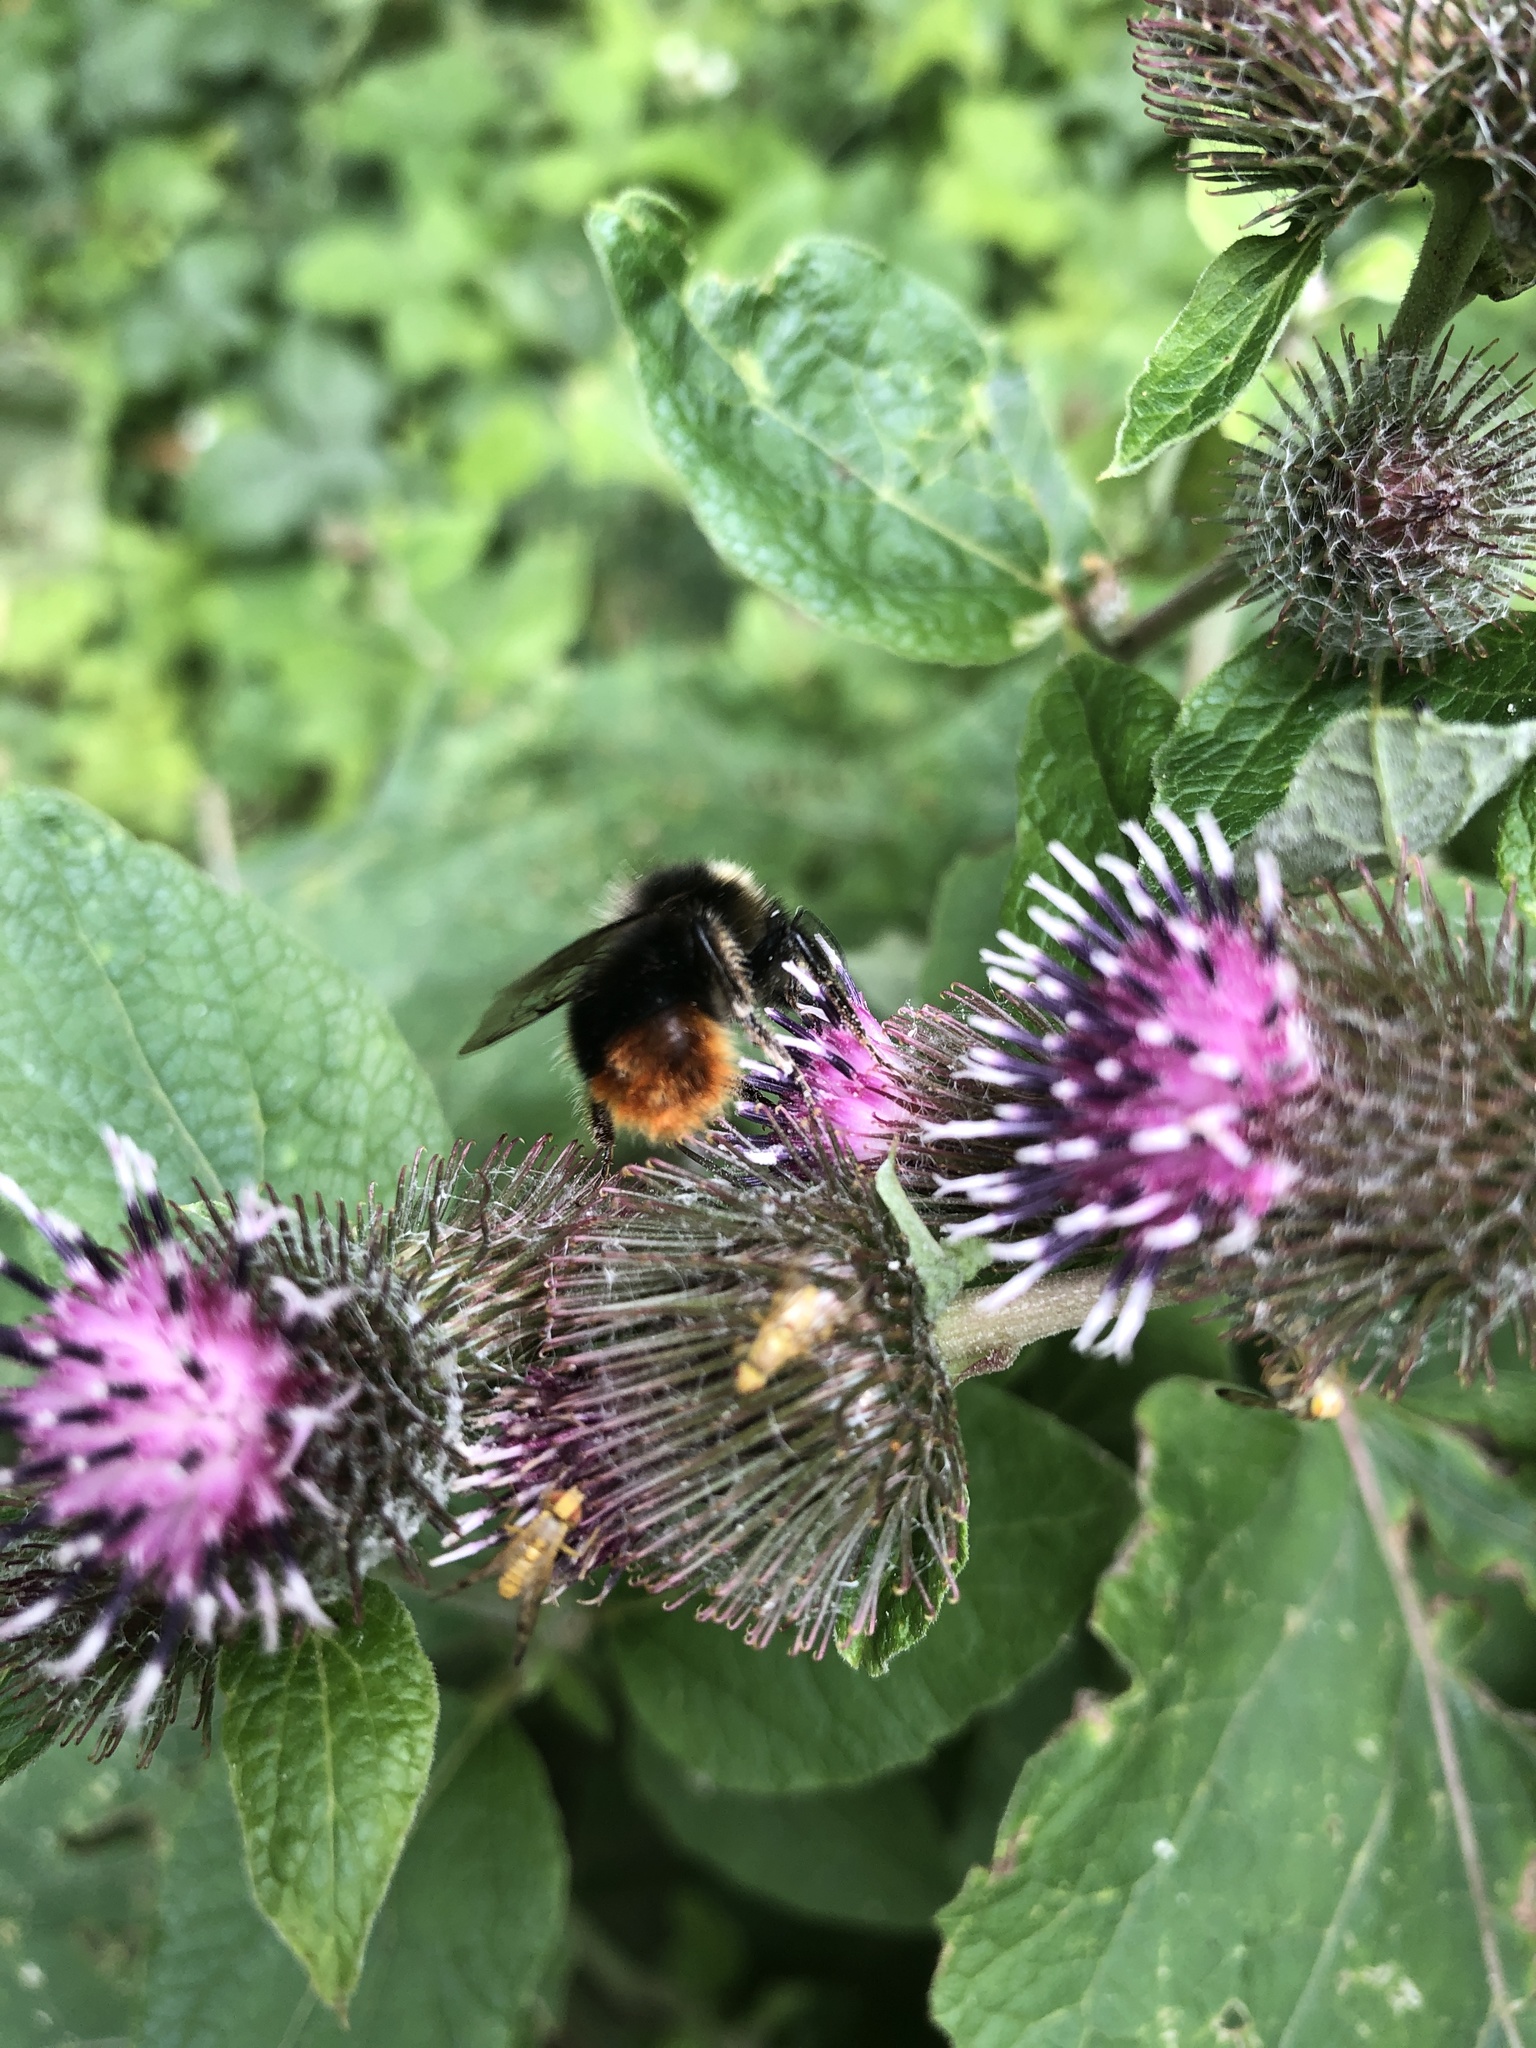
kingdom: Animalia
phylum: Arthropoda
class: Insecta
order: Hymenoptera
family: Apidae
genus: Bombus
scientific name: Bombus lapidarius
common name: Large red-tailed humble-bee
